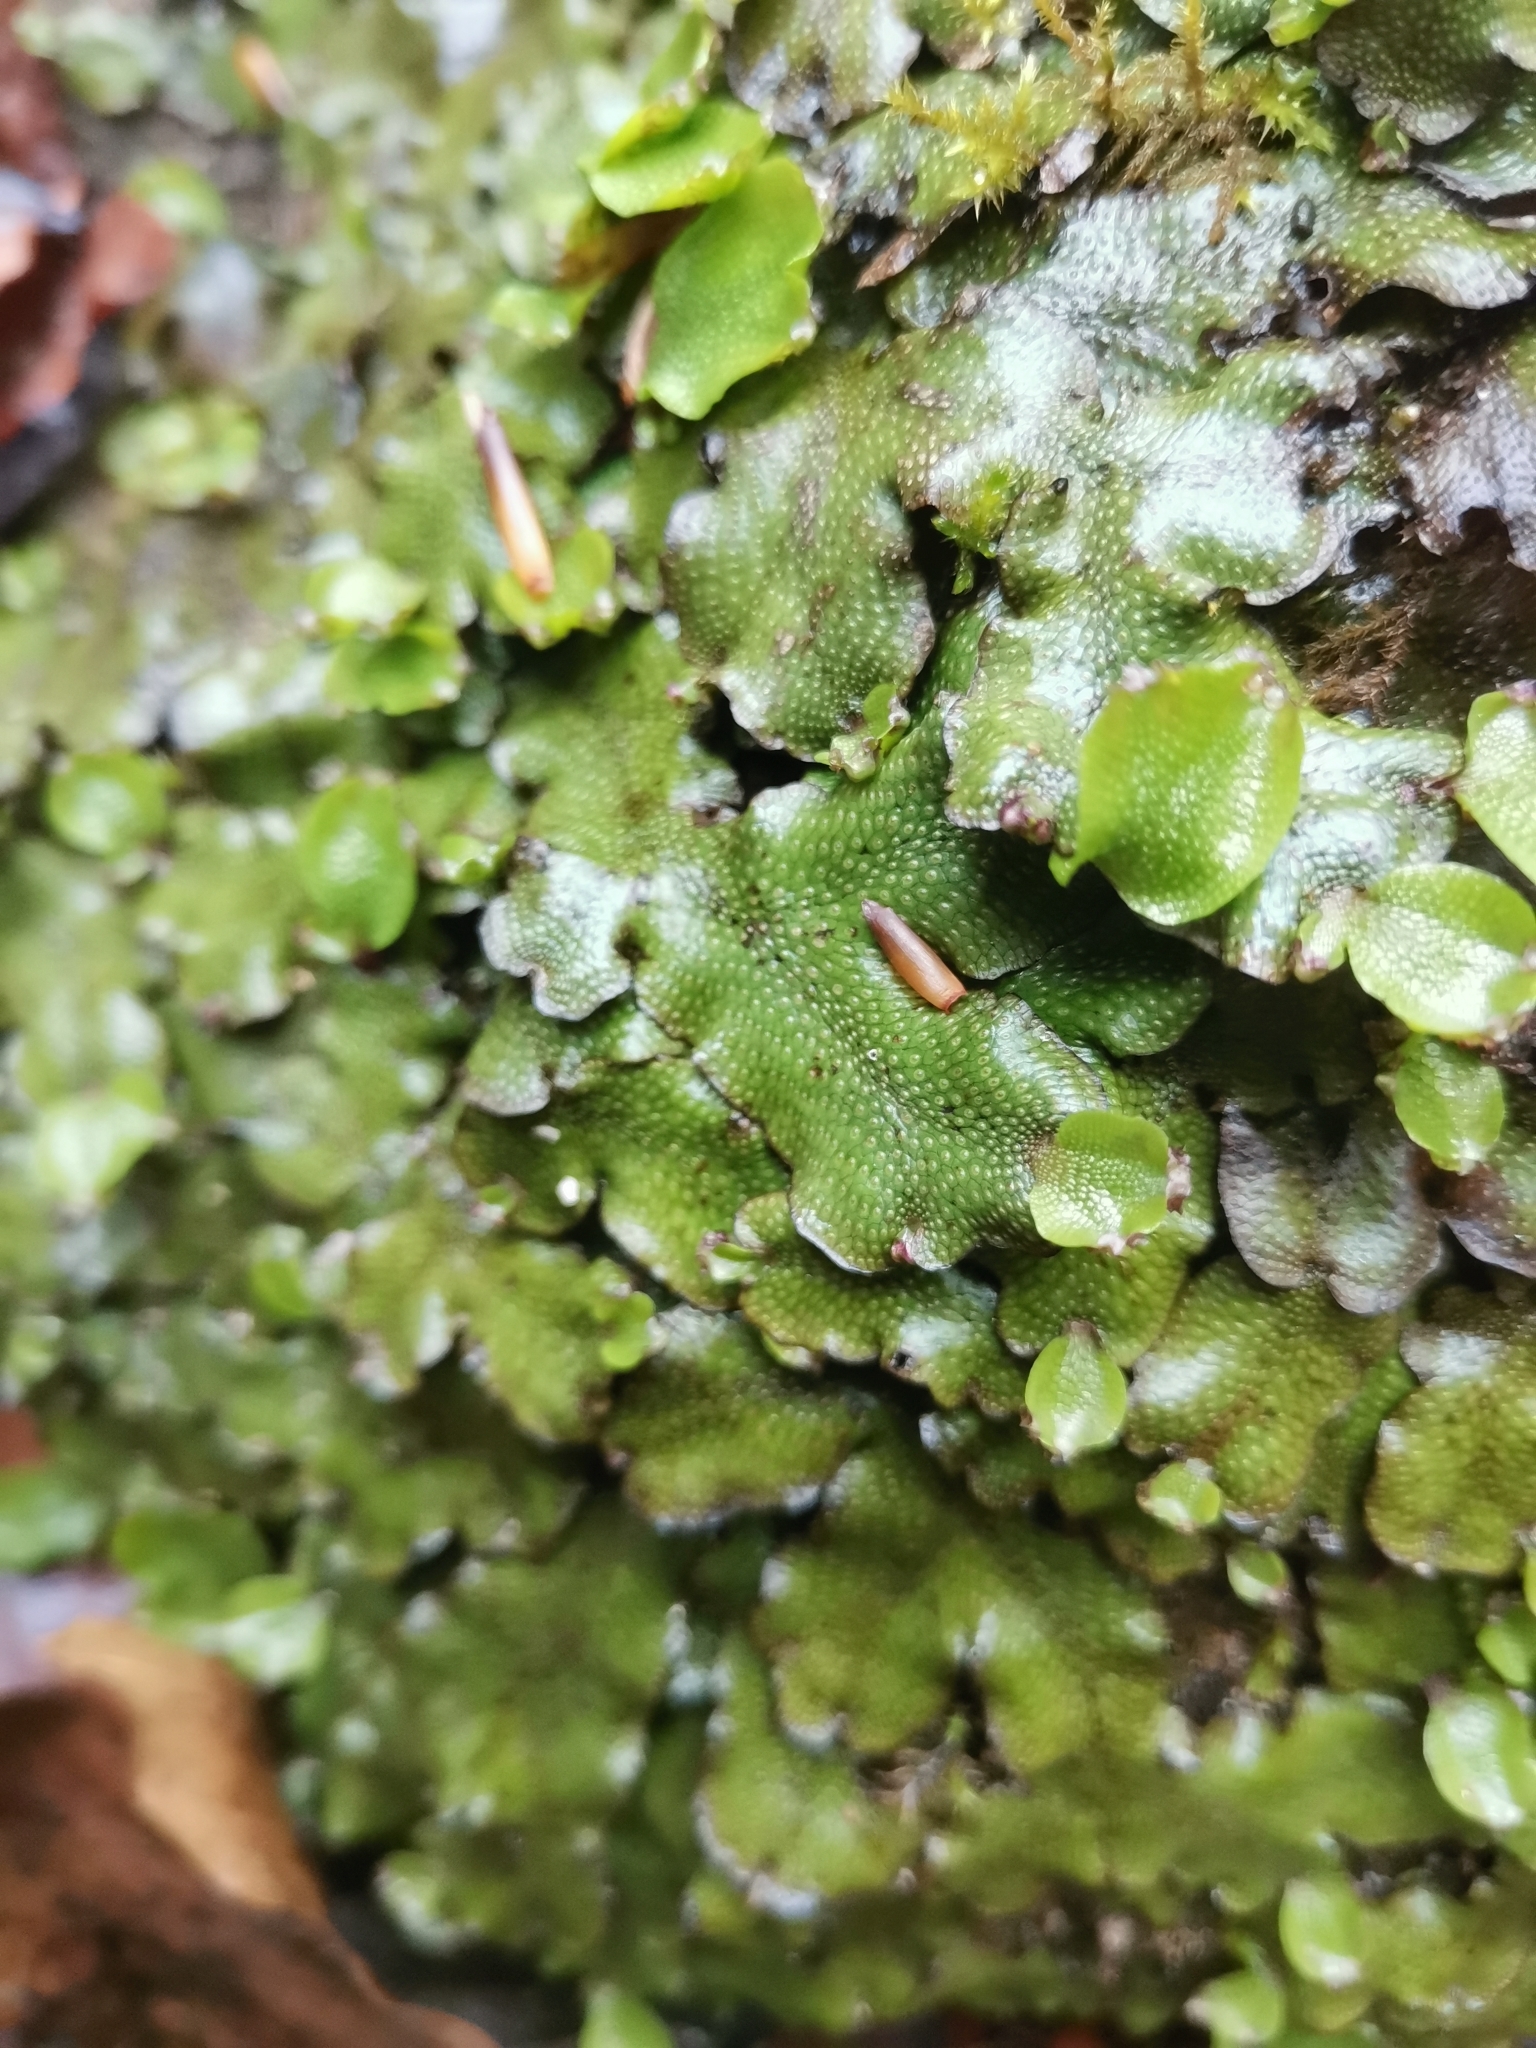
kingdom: Plantae
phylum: Marchantiophyta
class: Marchantiopsida
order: Marchantiales
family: Conocephalaceae
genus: Conocephalum
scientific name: Conocephalum conicum
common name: Great scented liverwort
